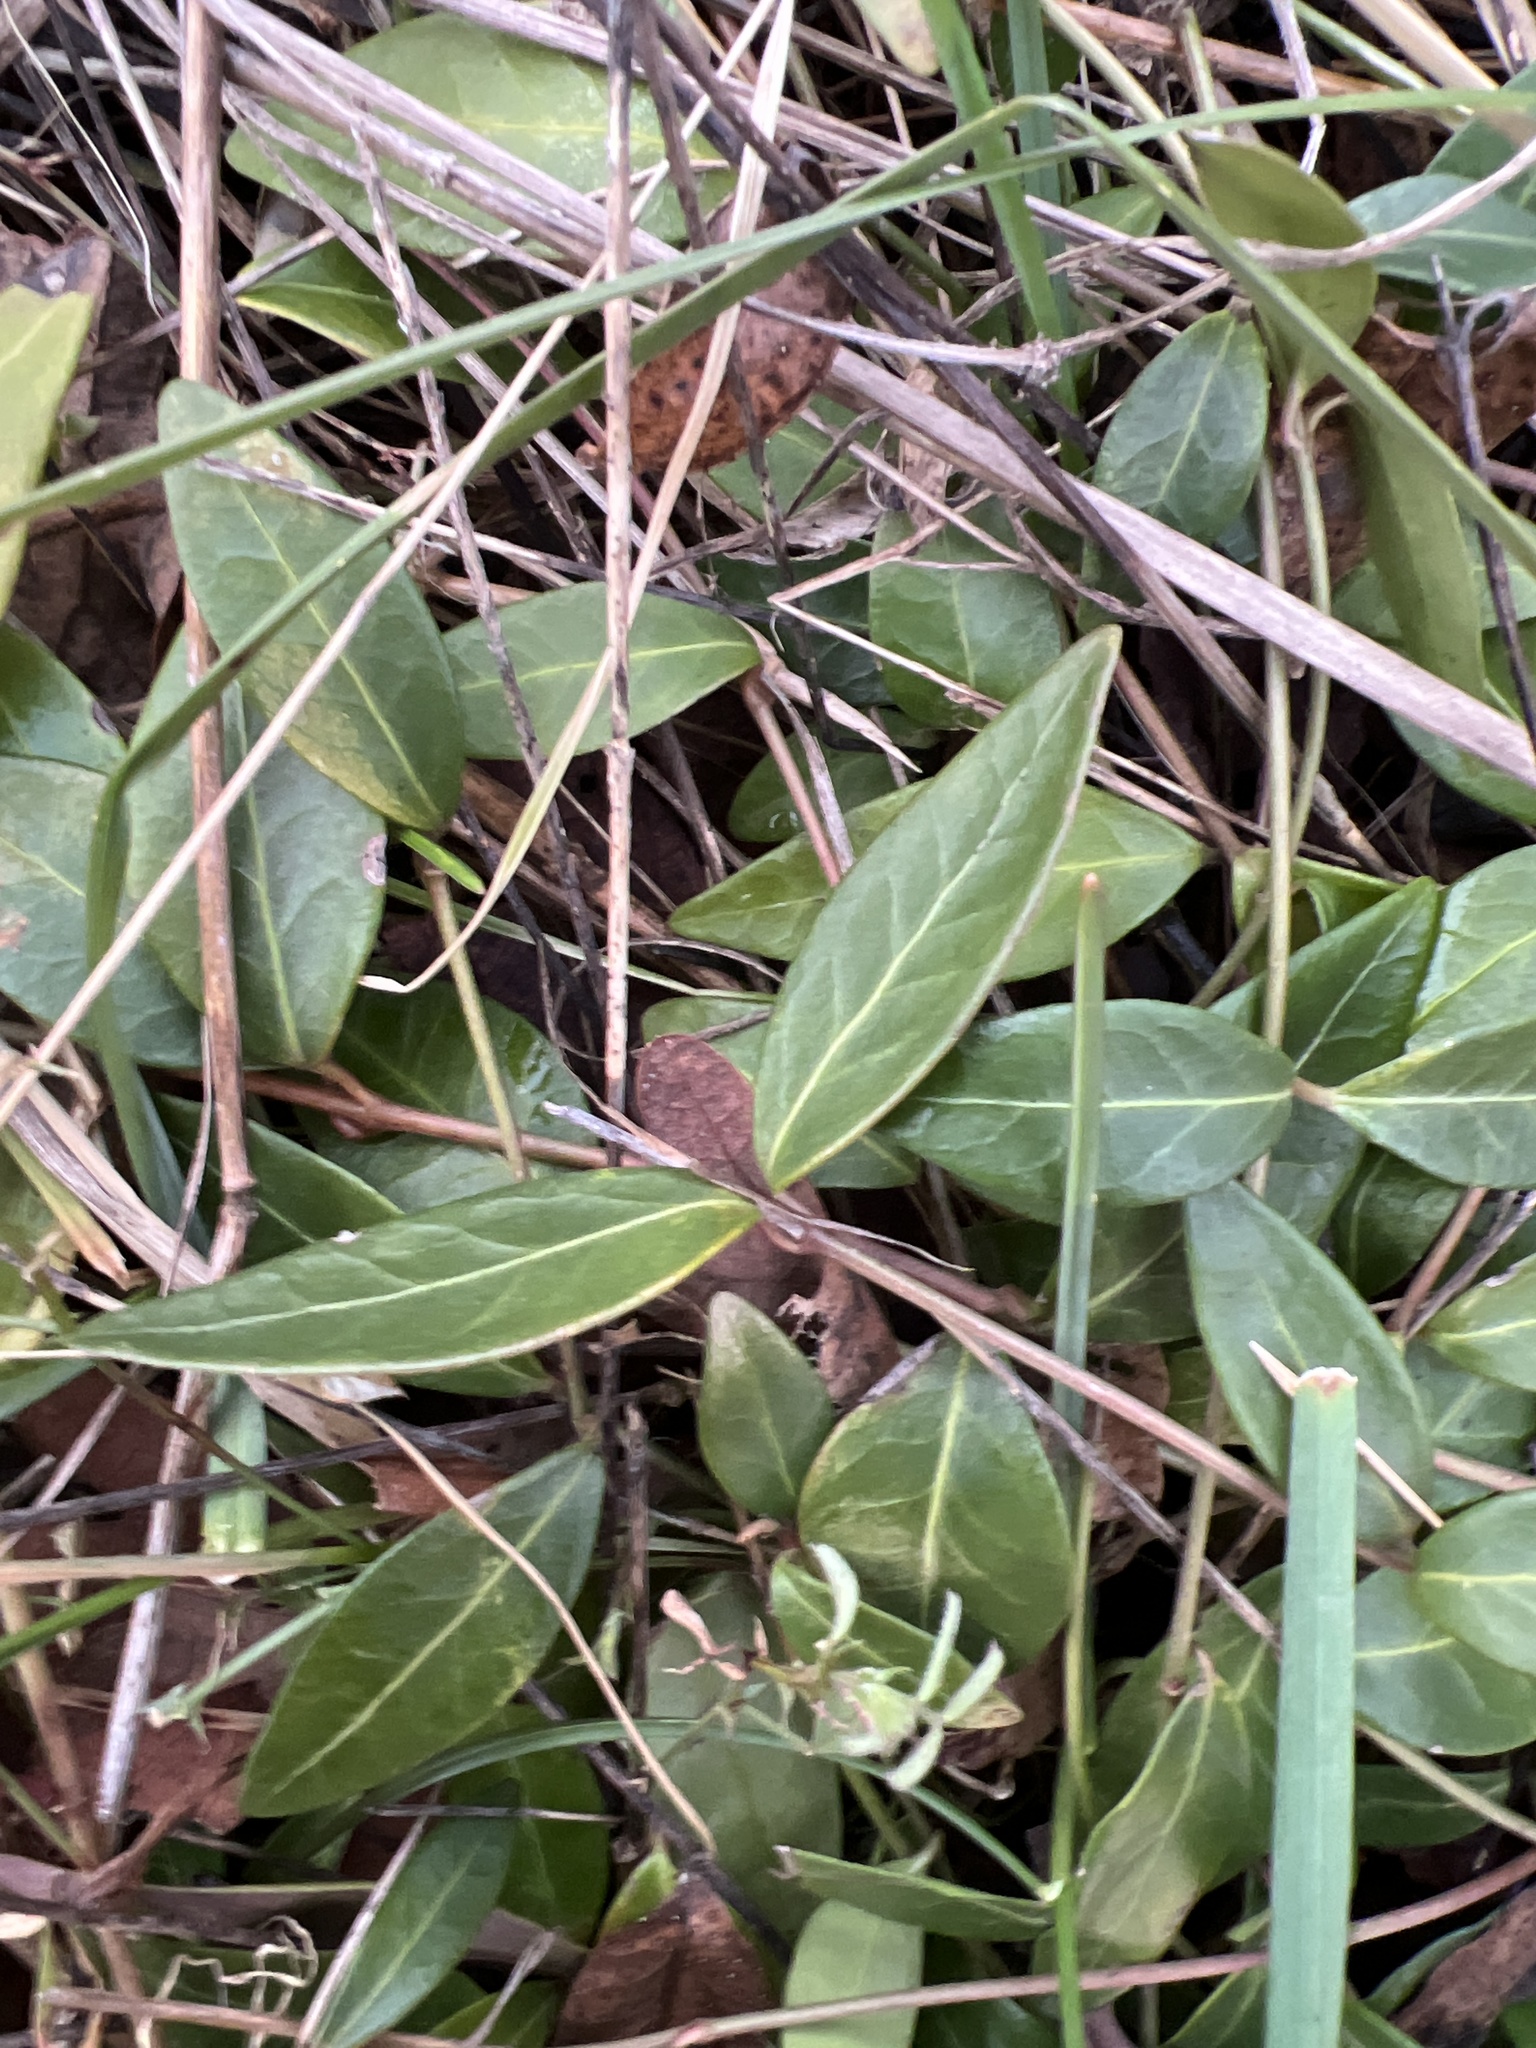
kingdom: Plantae
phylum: Tracheophyta
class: Magnoliopsida
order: Gentianales
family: Apocynaceae
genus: Vinca
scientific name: Vinca minor
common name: Lesser periwinkle
